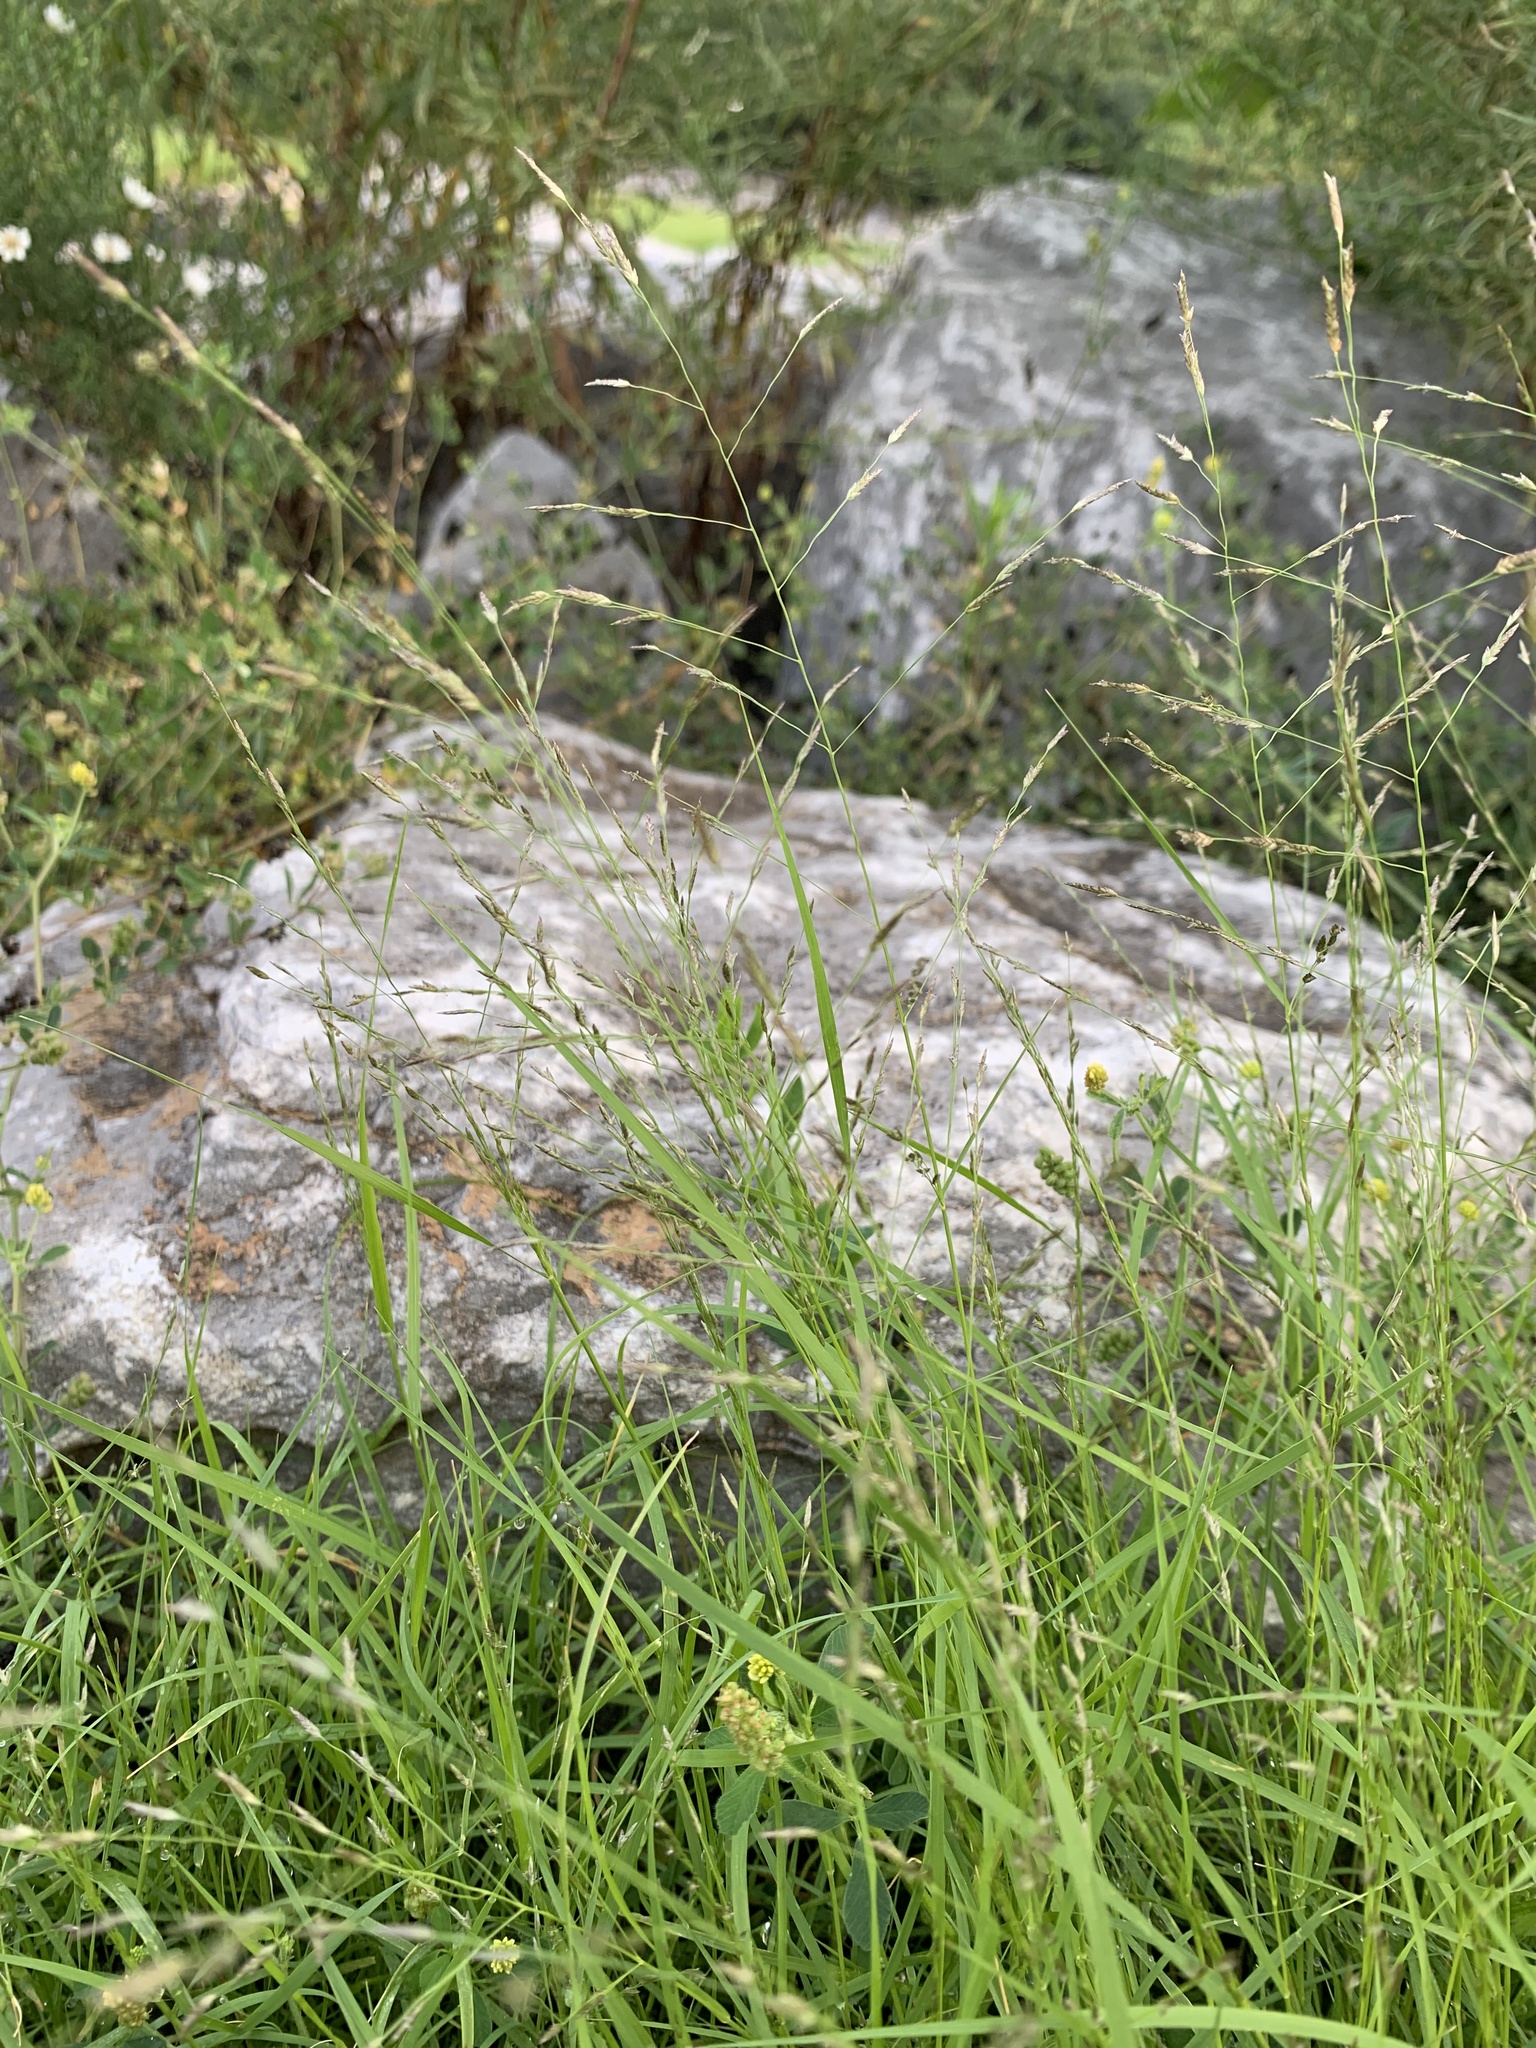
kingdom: Plantae
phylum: Tracheophyta
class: Liliopsida
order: Poales
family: Poaceae
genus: Eragrostis
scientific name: Eragrostis pectinacea
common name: Tufted lovegrass
